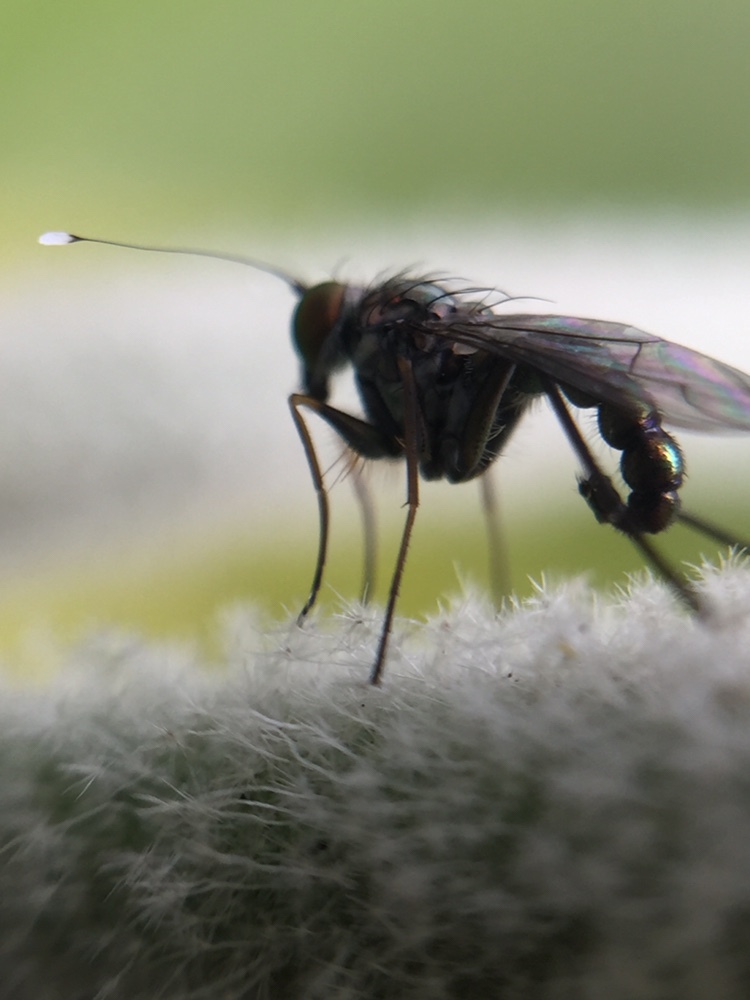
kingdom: Animalia
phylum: Arthropoda
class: Insecta
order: Diptera
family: Dolichopodidae
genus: Parentia
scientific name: Parentia restricta
